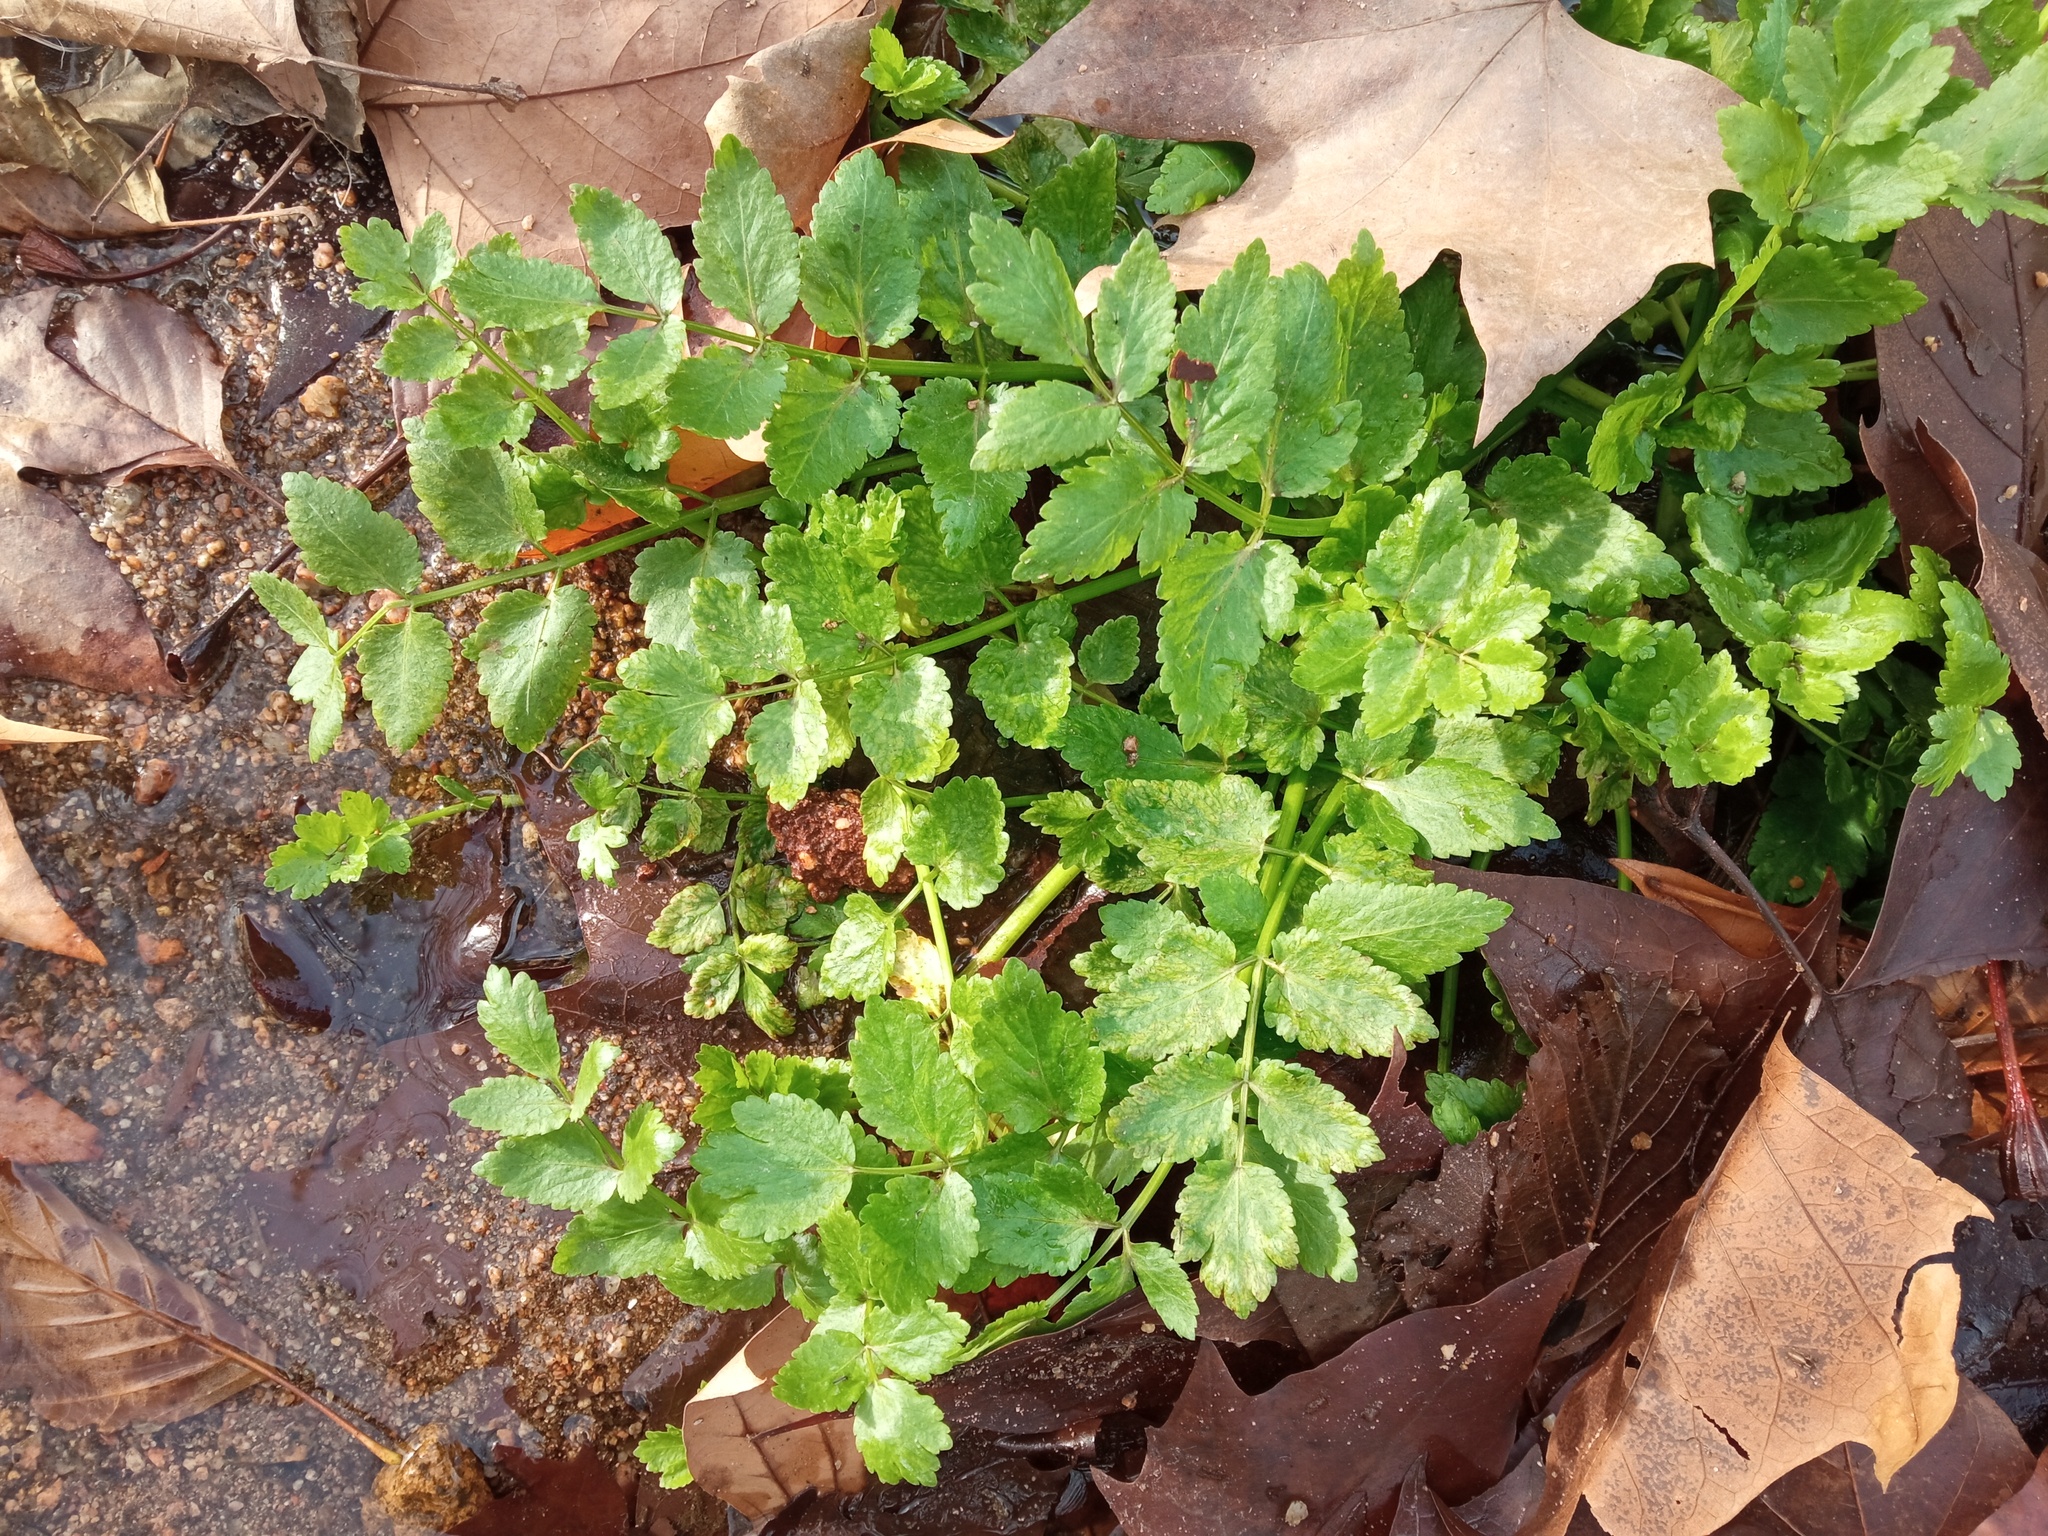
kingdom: Plantae
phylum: Tracheophyta
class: Magnoliopsida
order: Apiales
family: Apiaceae
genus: Helosciadium
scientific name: Helosciadium nodiflorum
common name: Fool's-watercress
